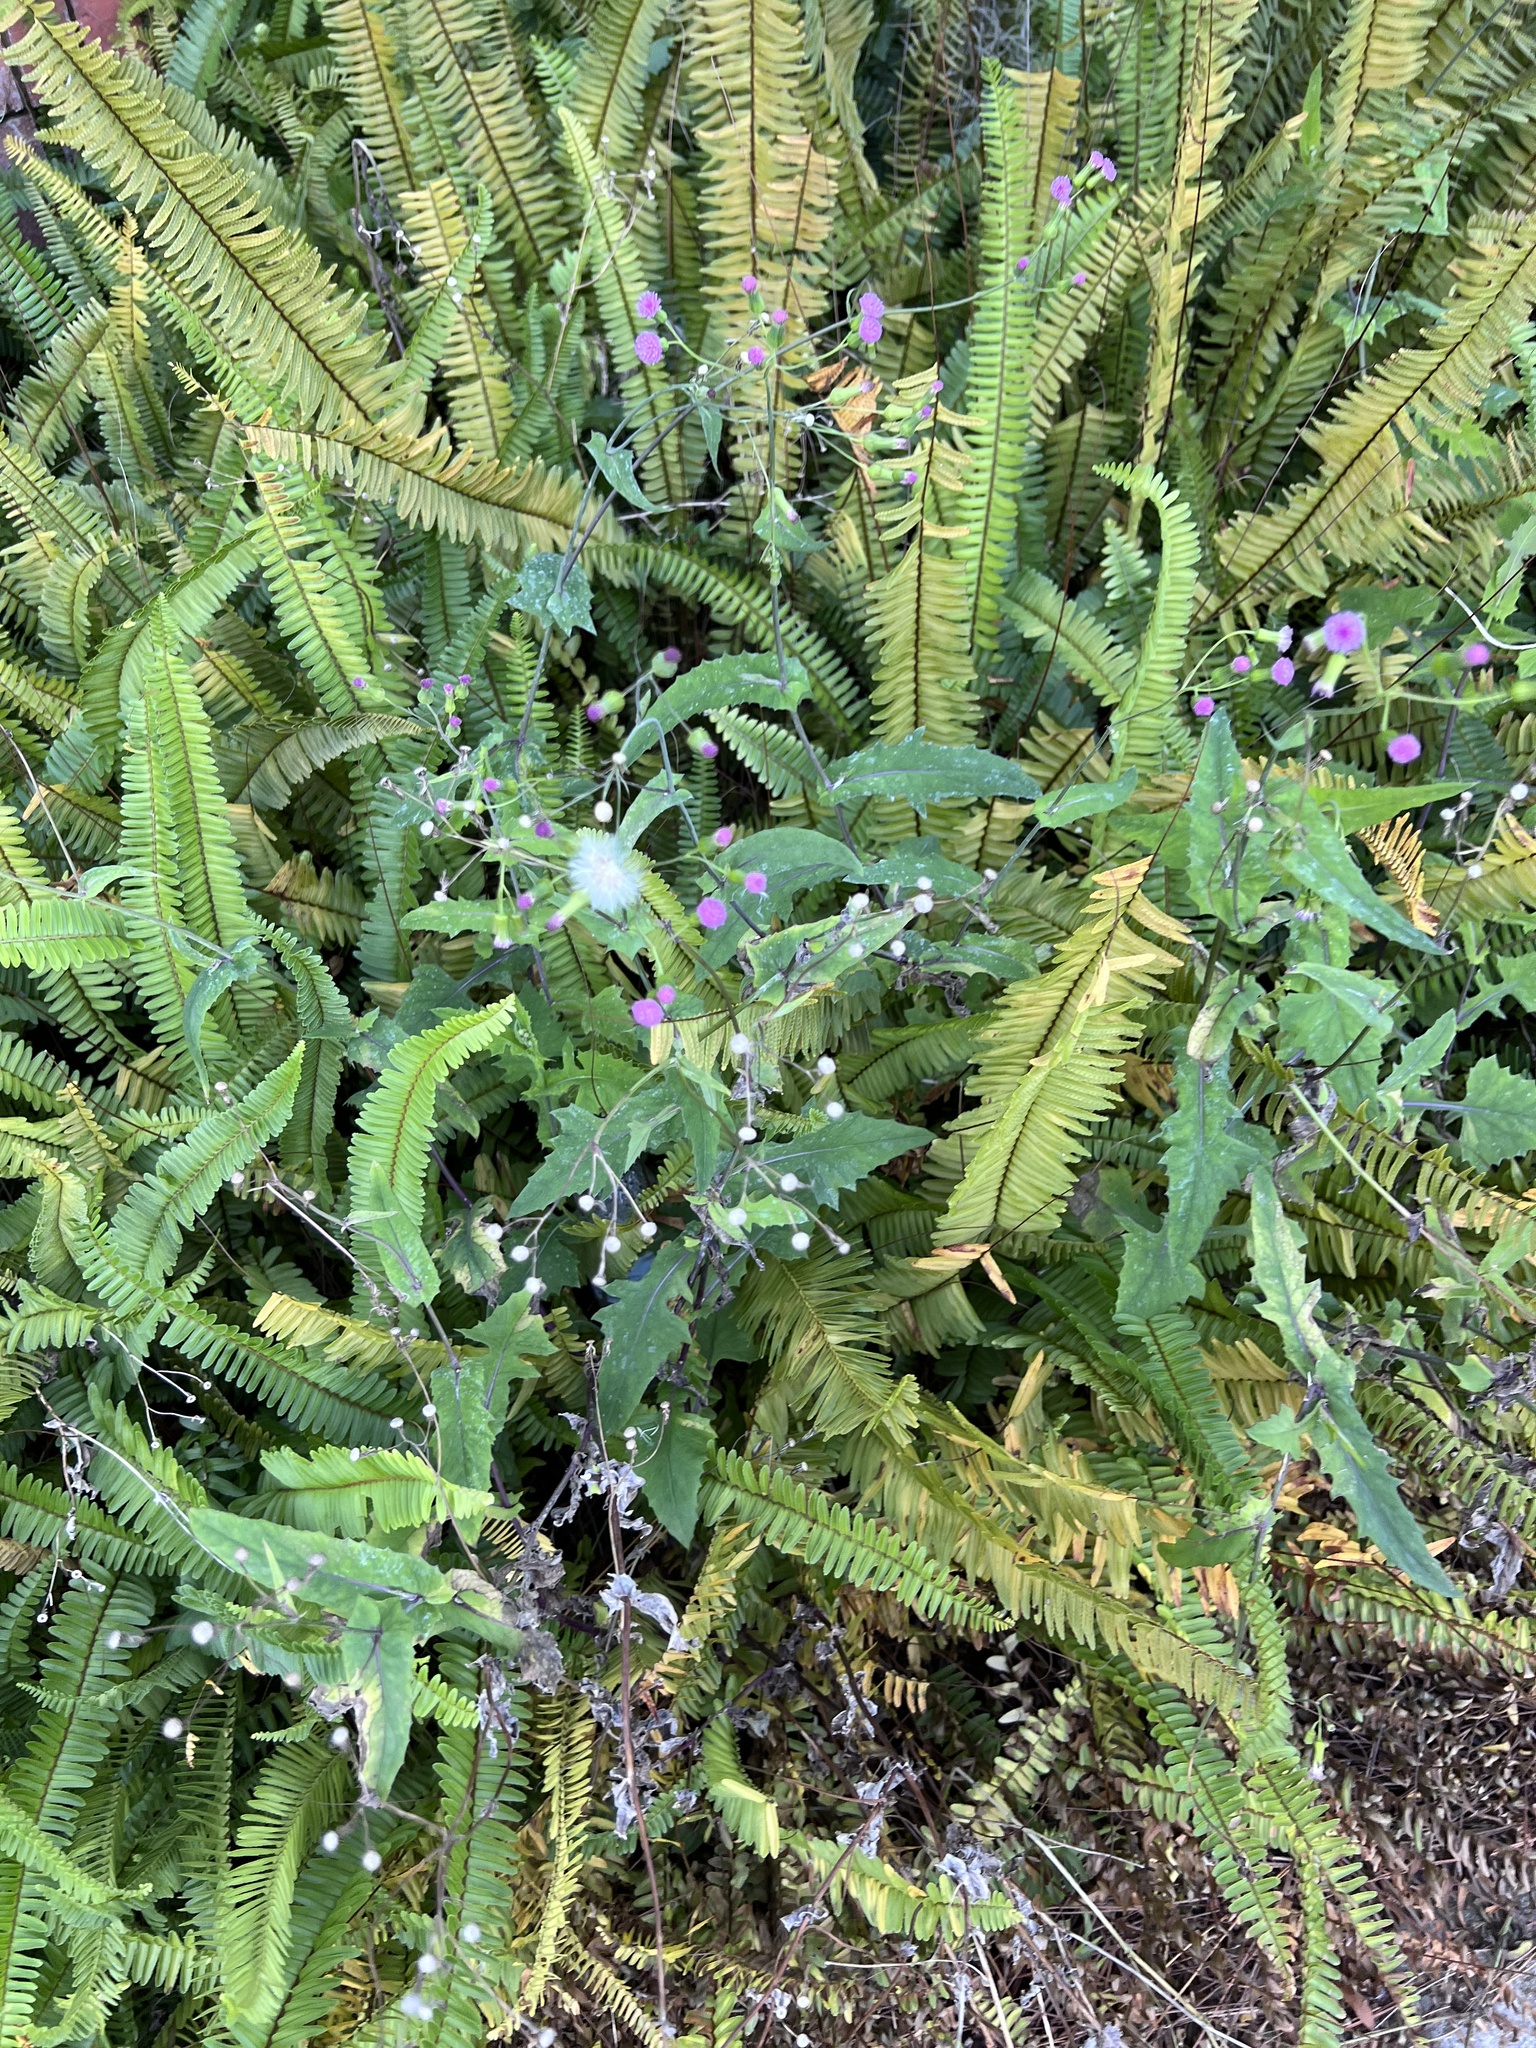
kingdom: Plantae
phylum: Tracheophyta
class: Magnoliopsida
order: Asterales
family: Asteraceae
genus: Emilia
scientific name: Emilia sonchifolia
